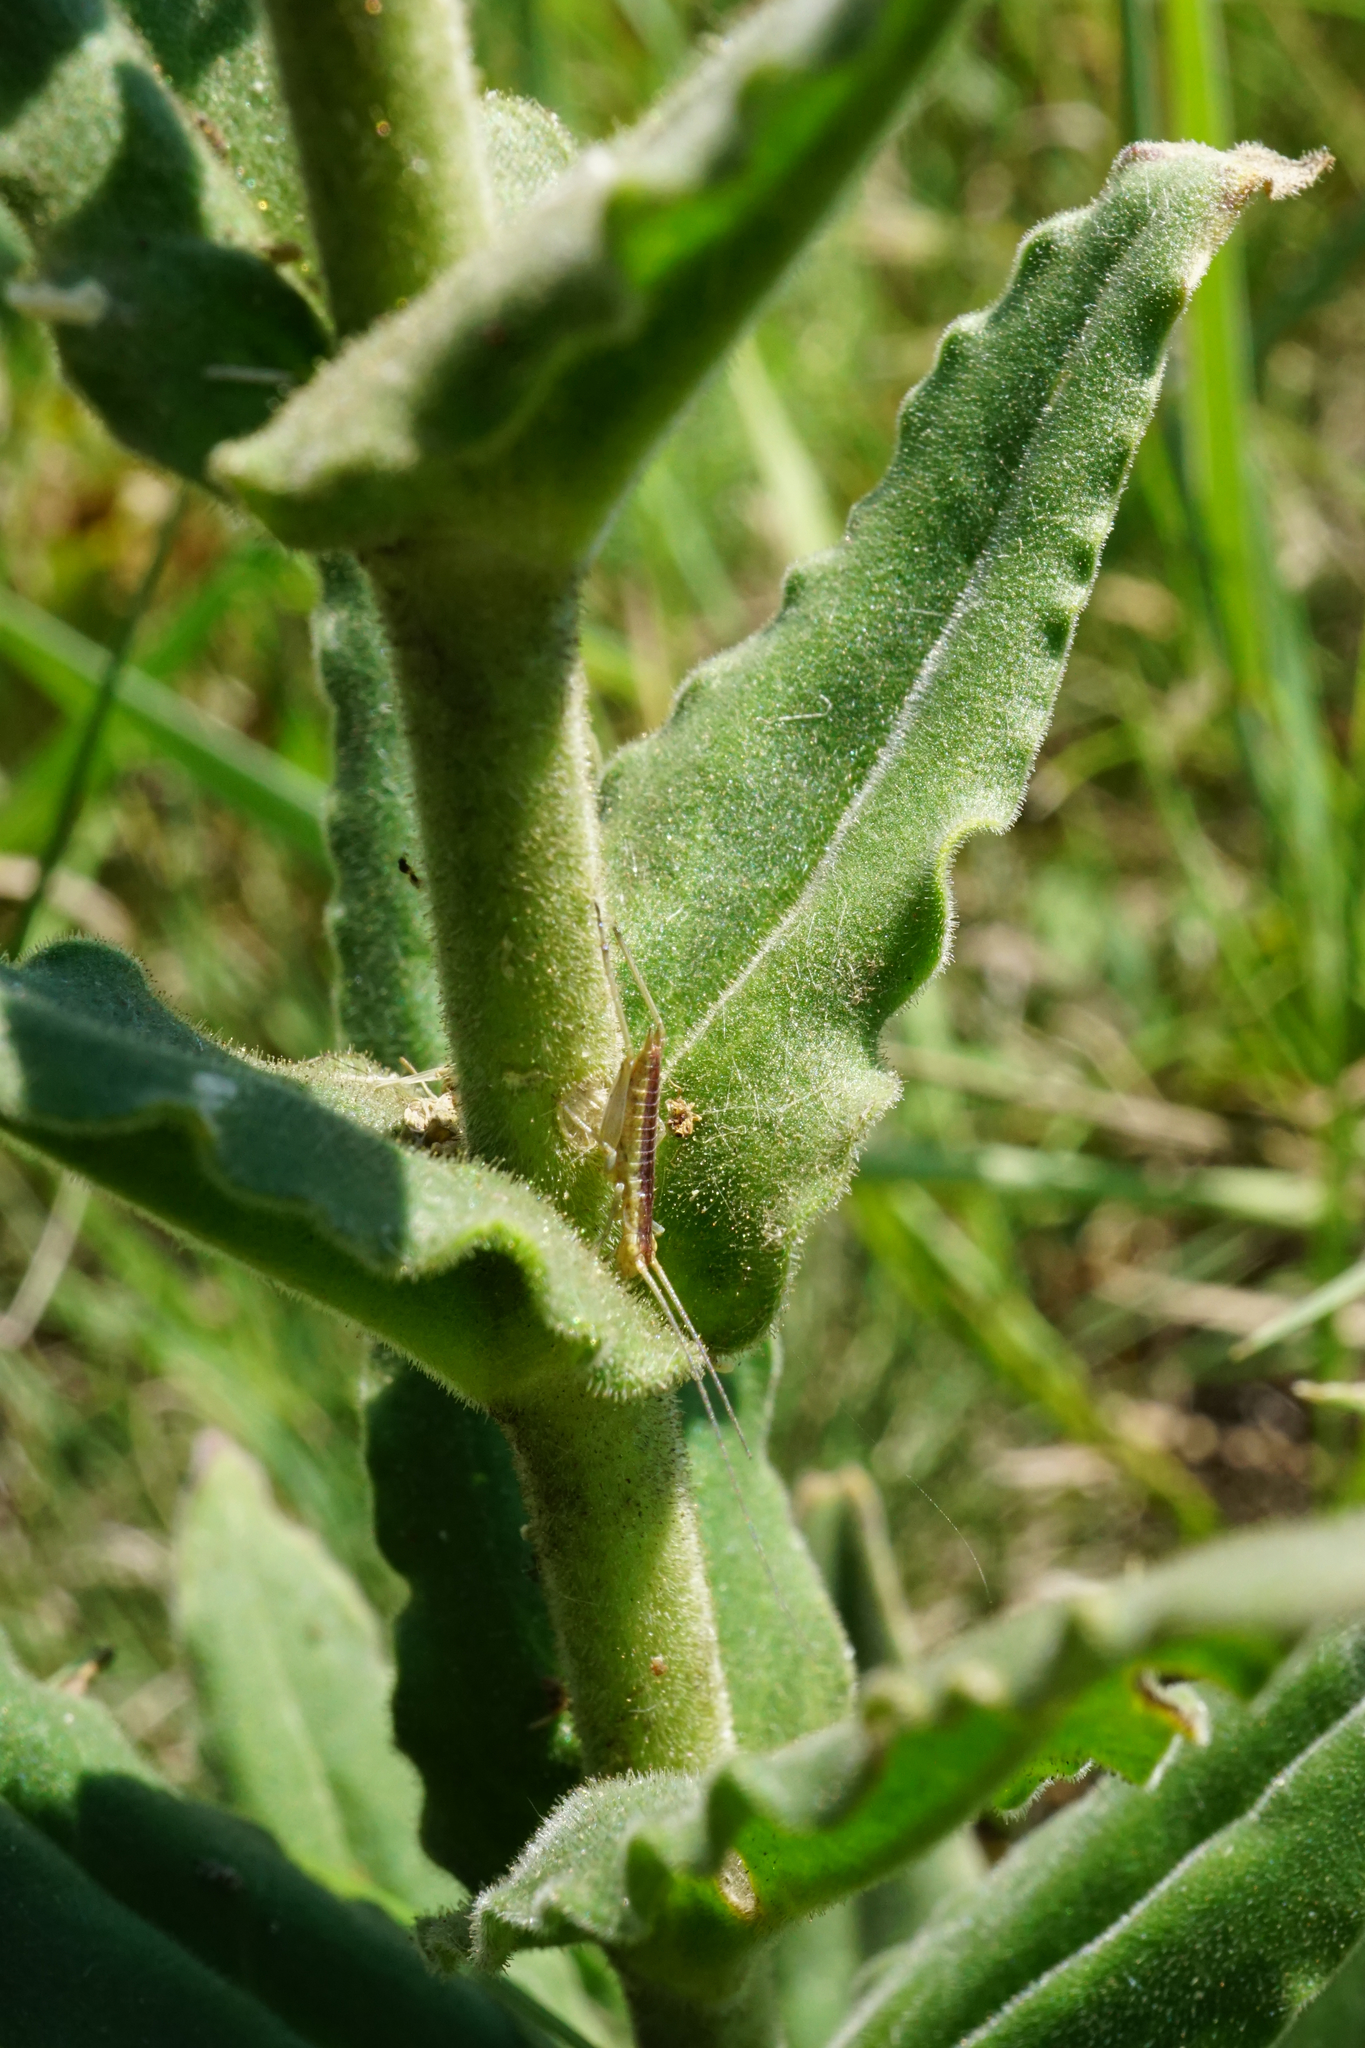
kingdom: Plantae
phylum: Tracheophyta
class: Magnoliopsida
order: Caryophyllales
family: Caryophyllaceae
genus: Silene
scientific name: Silene viscosa
